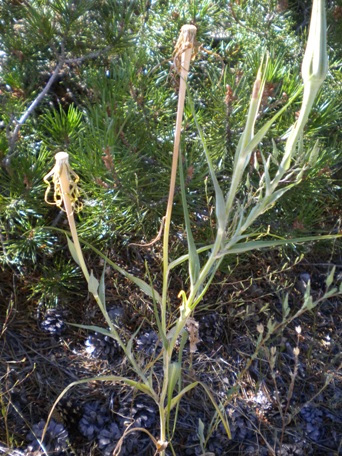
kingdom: Plantae
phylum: Tracheophyta
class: Magnoliopsida
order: Asterales
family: Asteraceae
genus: Tragopogon
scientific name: Tragopogon dubius
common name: Yellow salsify
